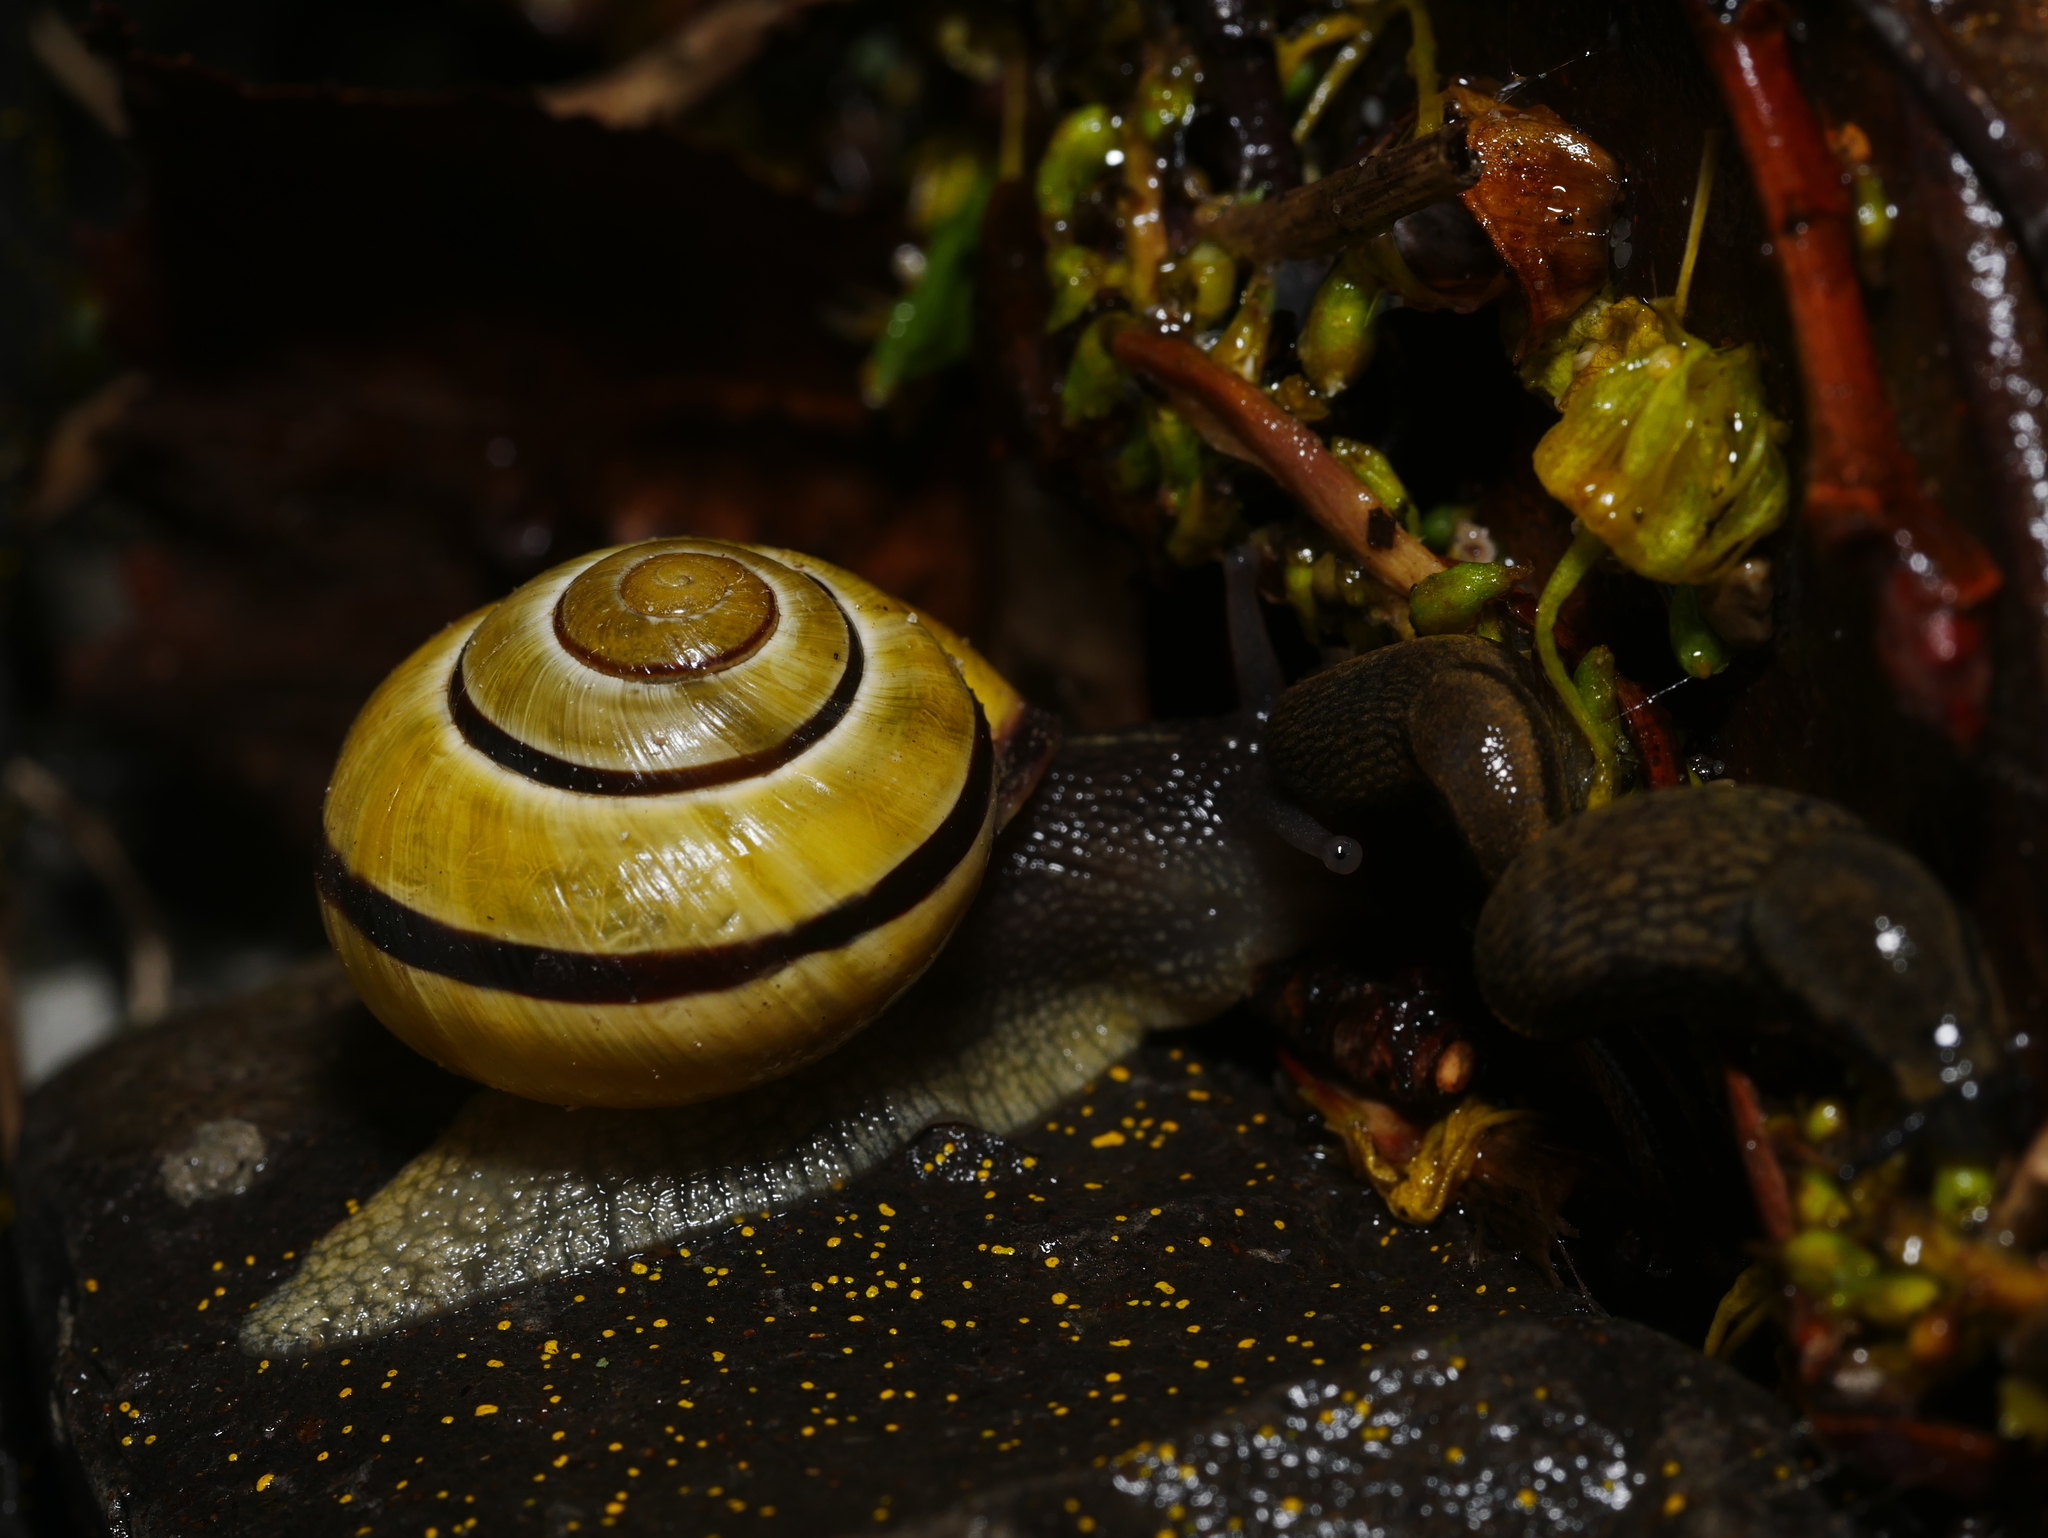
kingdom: Animalia
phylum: Mollusca
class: Gastropoda
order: Stylommatophora
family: Helicidae
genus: Cepaea
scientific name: Cepaea nemoralis
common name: Grovesnail
